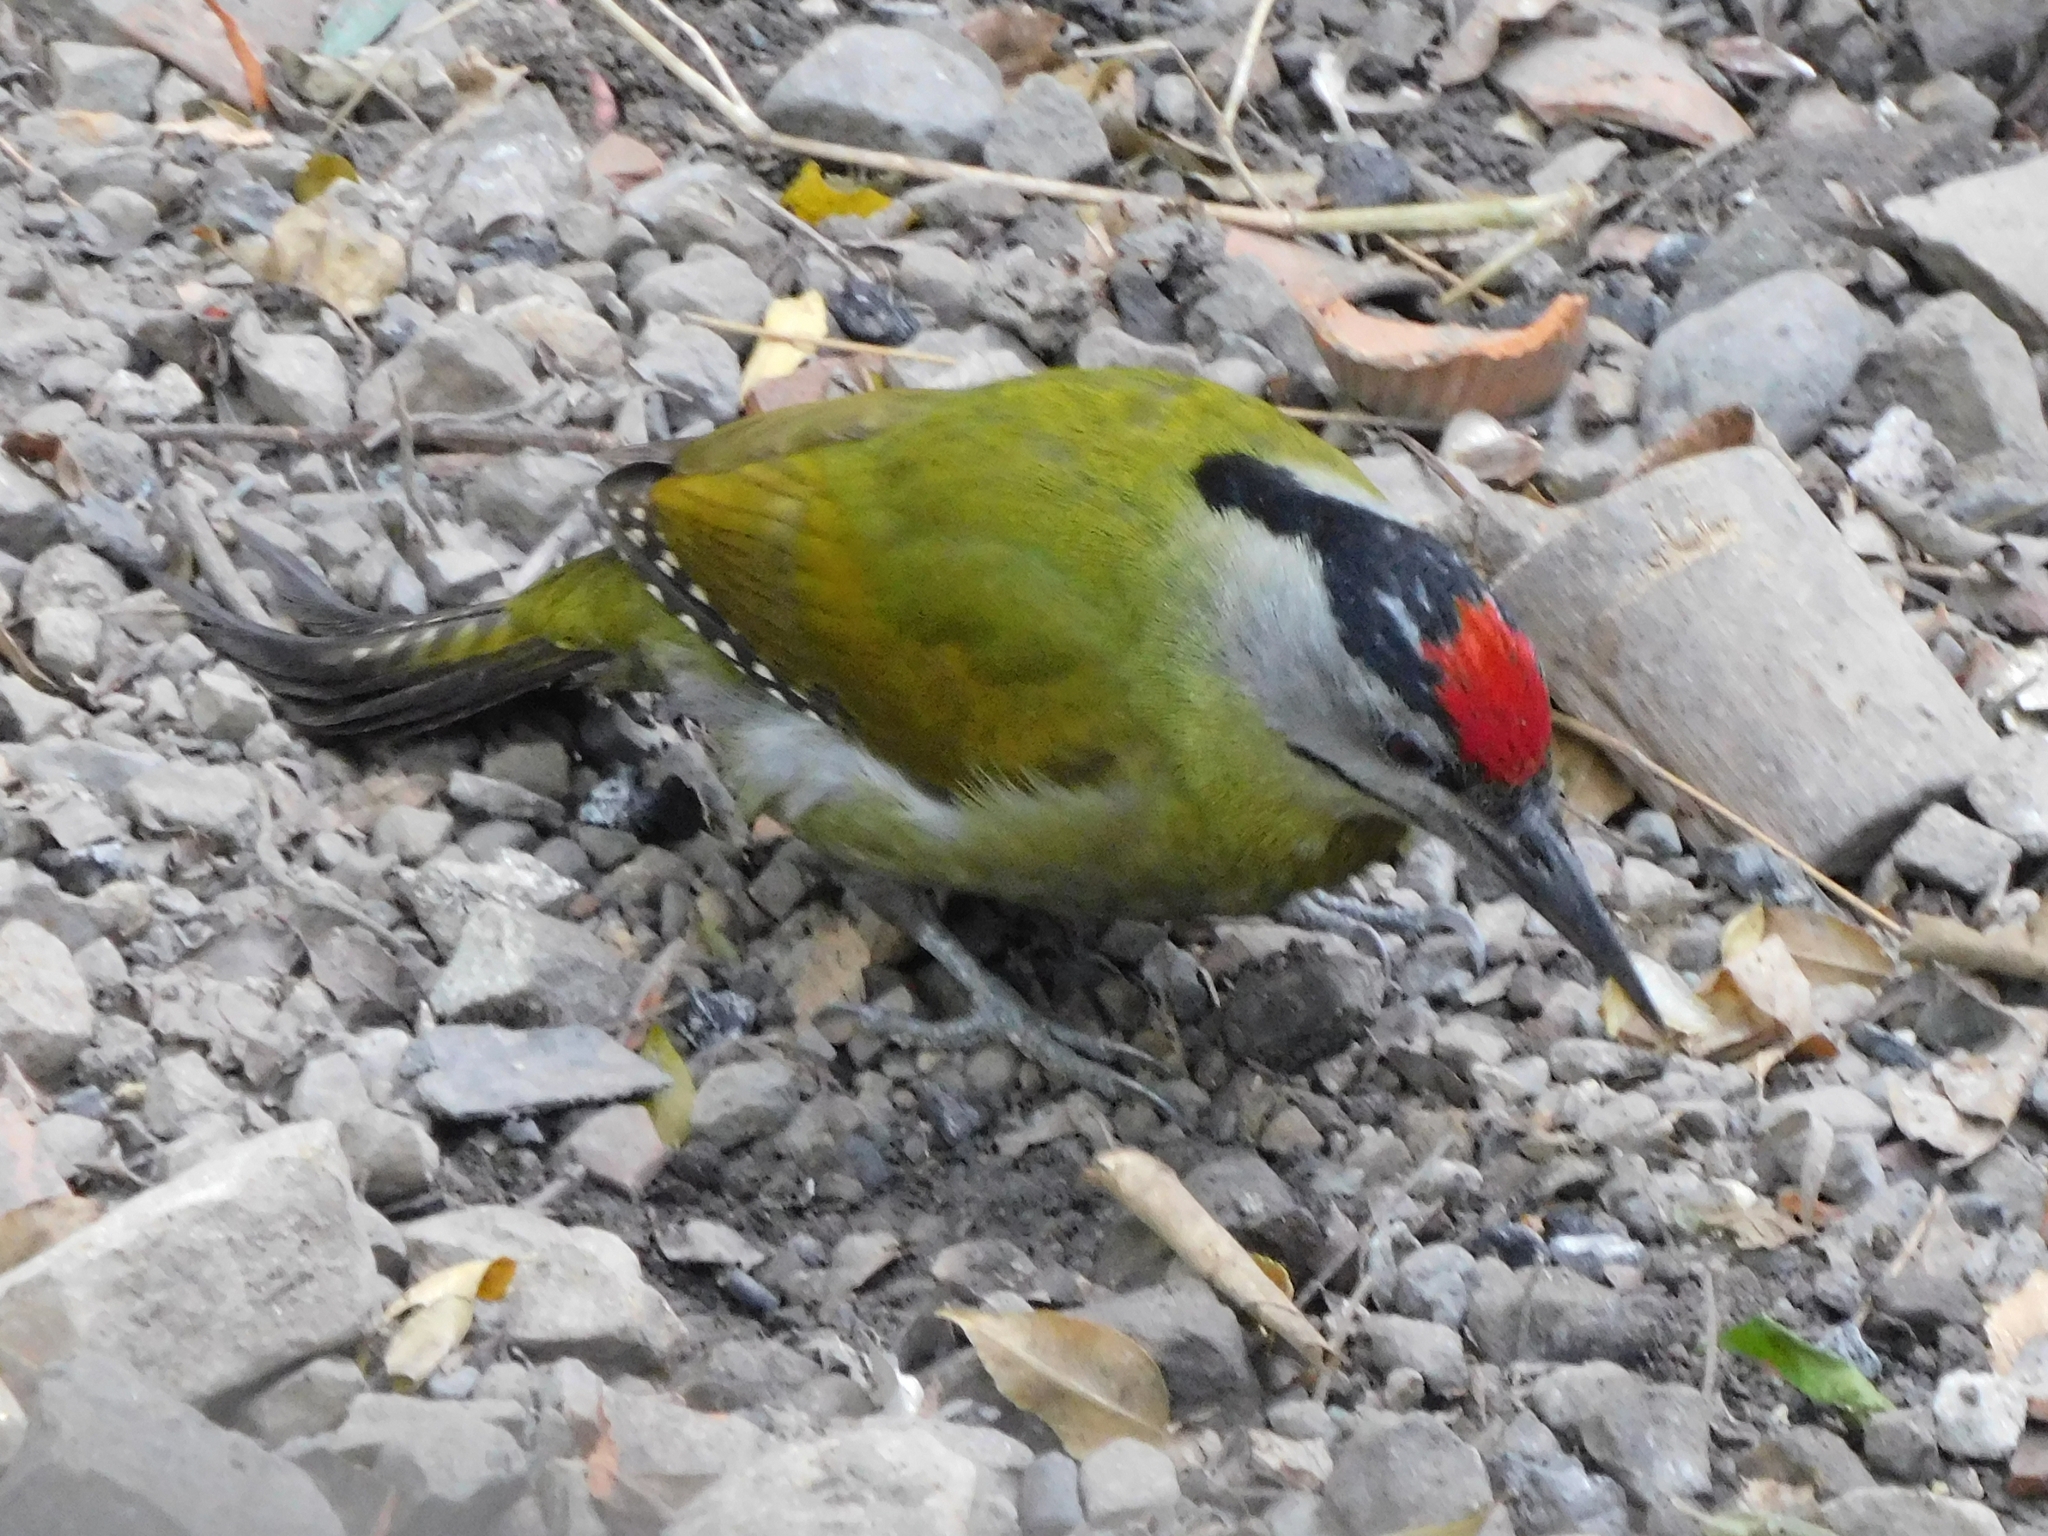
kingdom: Animalia
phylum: Chordata
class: Aves
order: Piciformes
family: Picidae
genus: Picus
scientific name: Picus canus
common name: Grey-headed woodpecker
